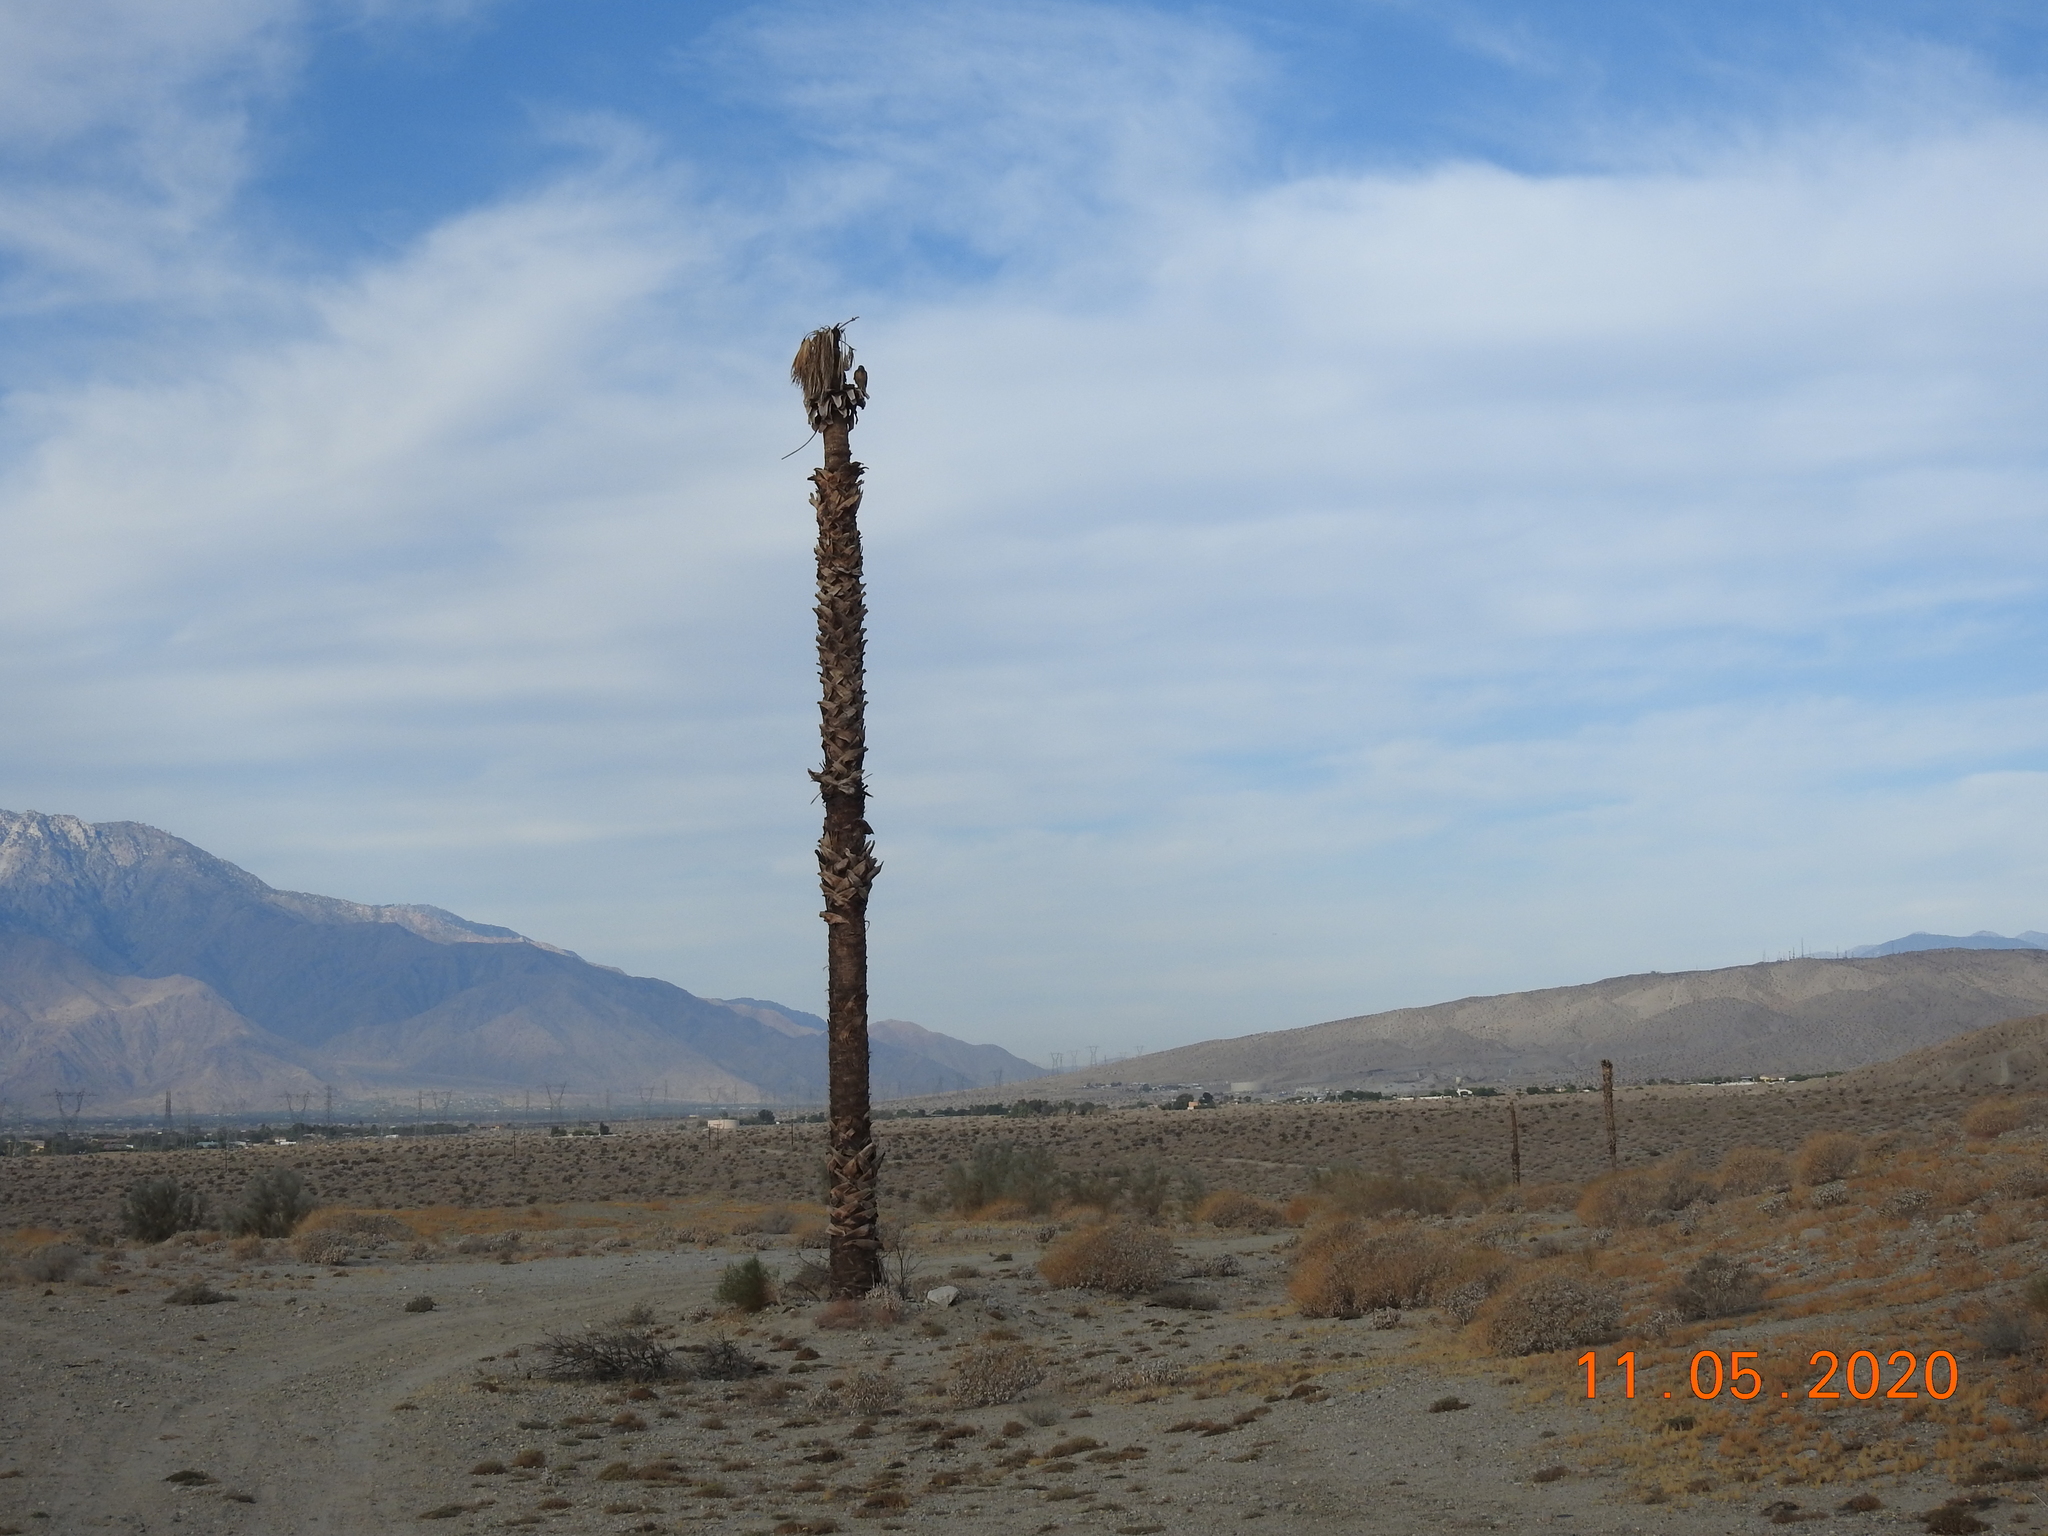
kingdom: Animalia
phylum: Chordata
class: Aves
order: Accipitriformes
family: Accipitridae
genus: Buteo
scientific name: Buteo jamaicensis
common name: Red-tailed hawk
